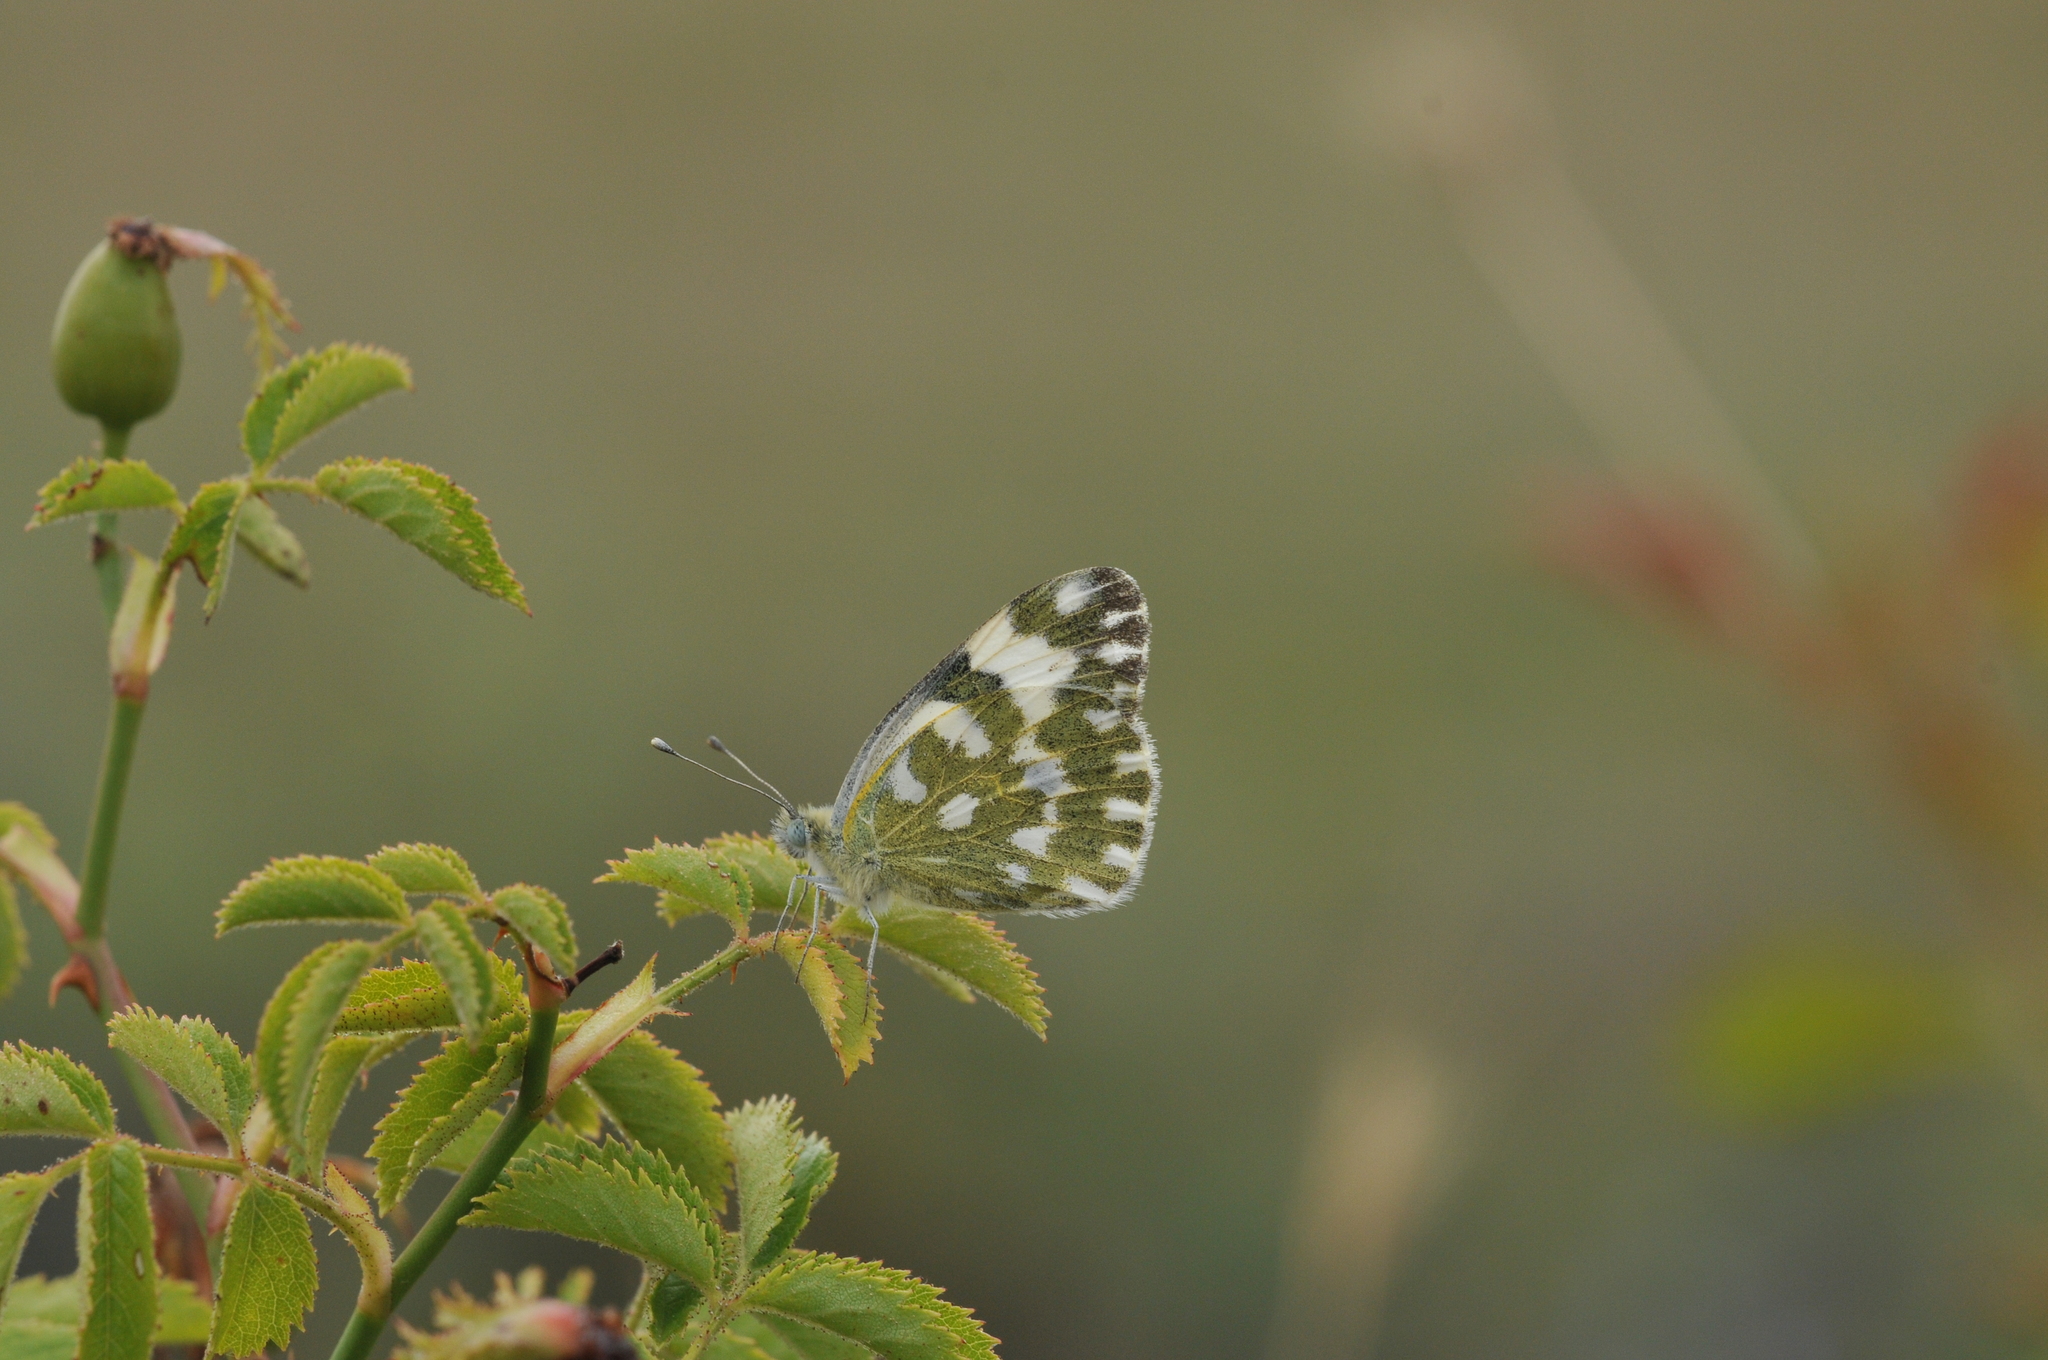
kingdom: Animalia
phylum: Arthropoda
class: Insecta
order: Lepidoptera
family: Pieridae
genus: Pontia
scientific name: Pontia edusa
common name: Eastern bath white
